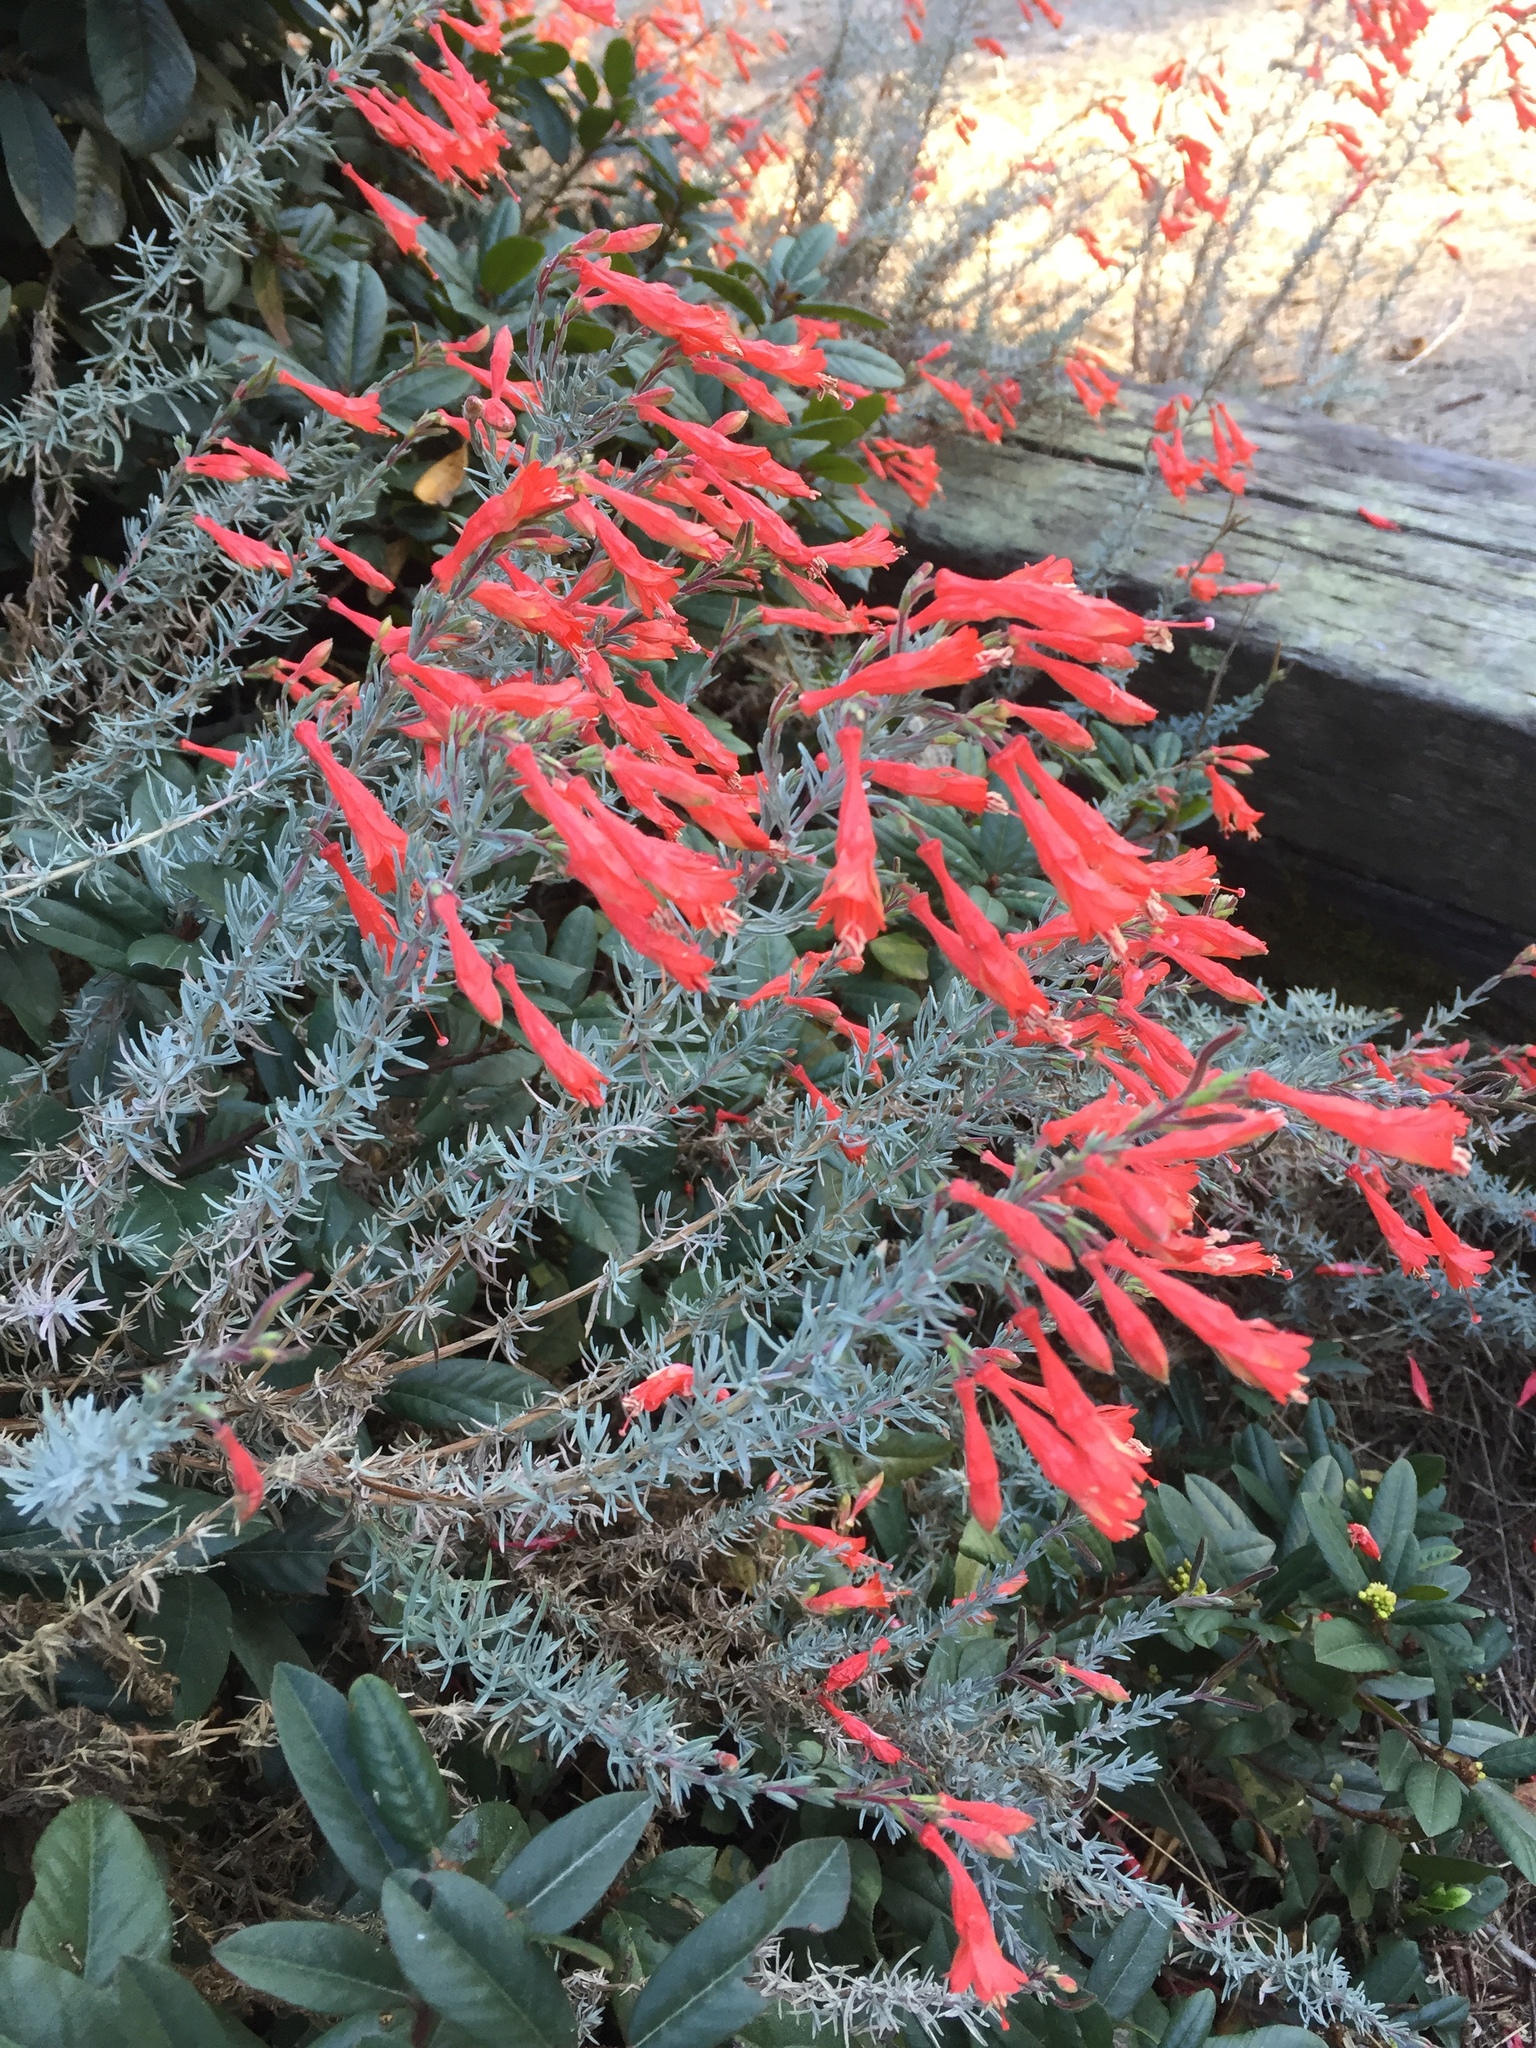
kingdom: Plantae
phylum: Tracheophyta
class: Magnoliopsida
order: Myrtales
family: Onagraceae
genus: Epilobium
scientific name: Epilobium canum
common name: California-fuchsia
